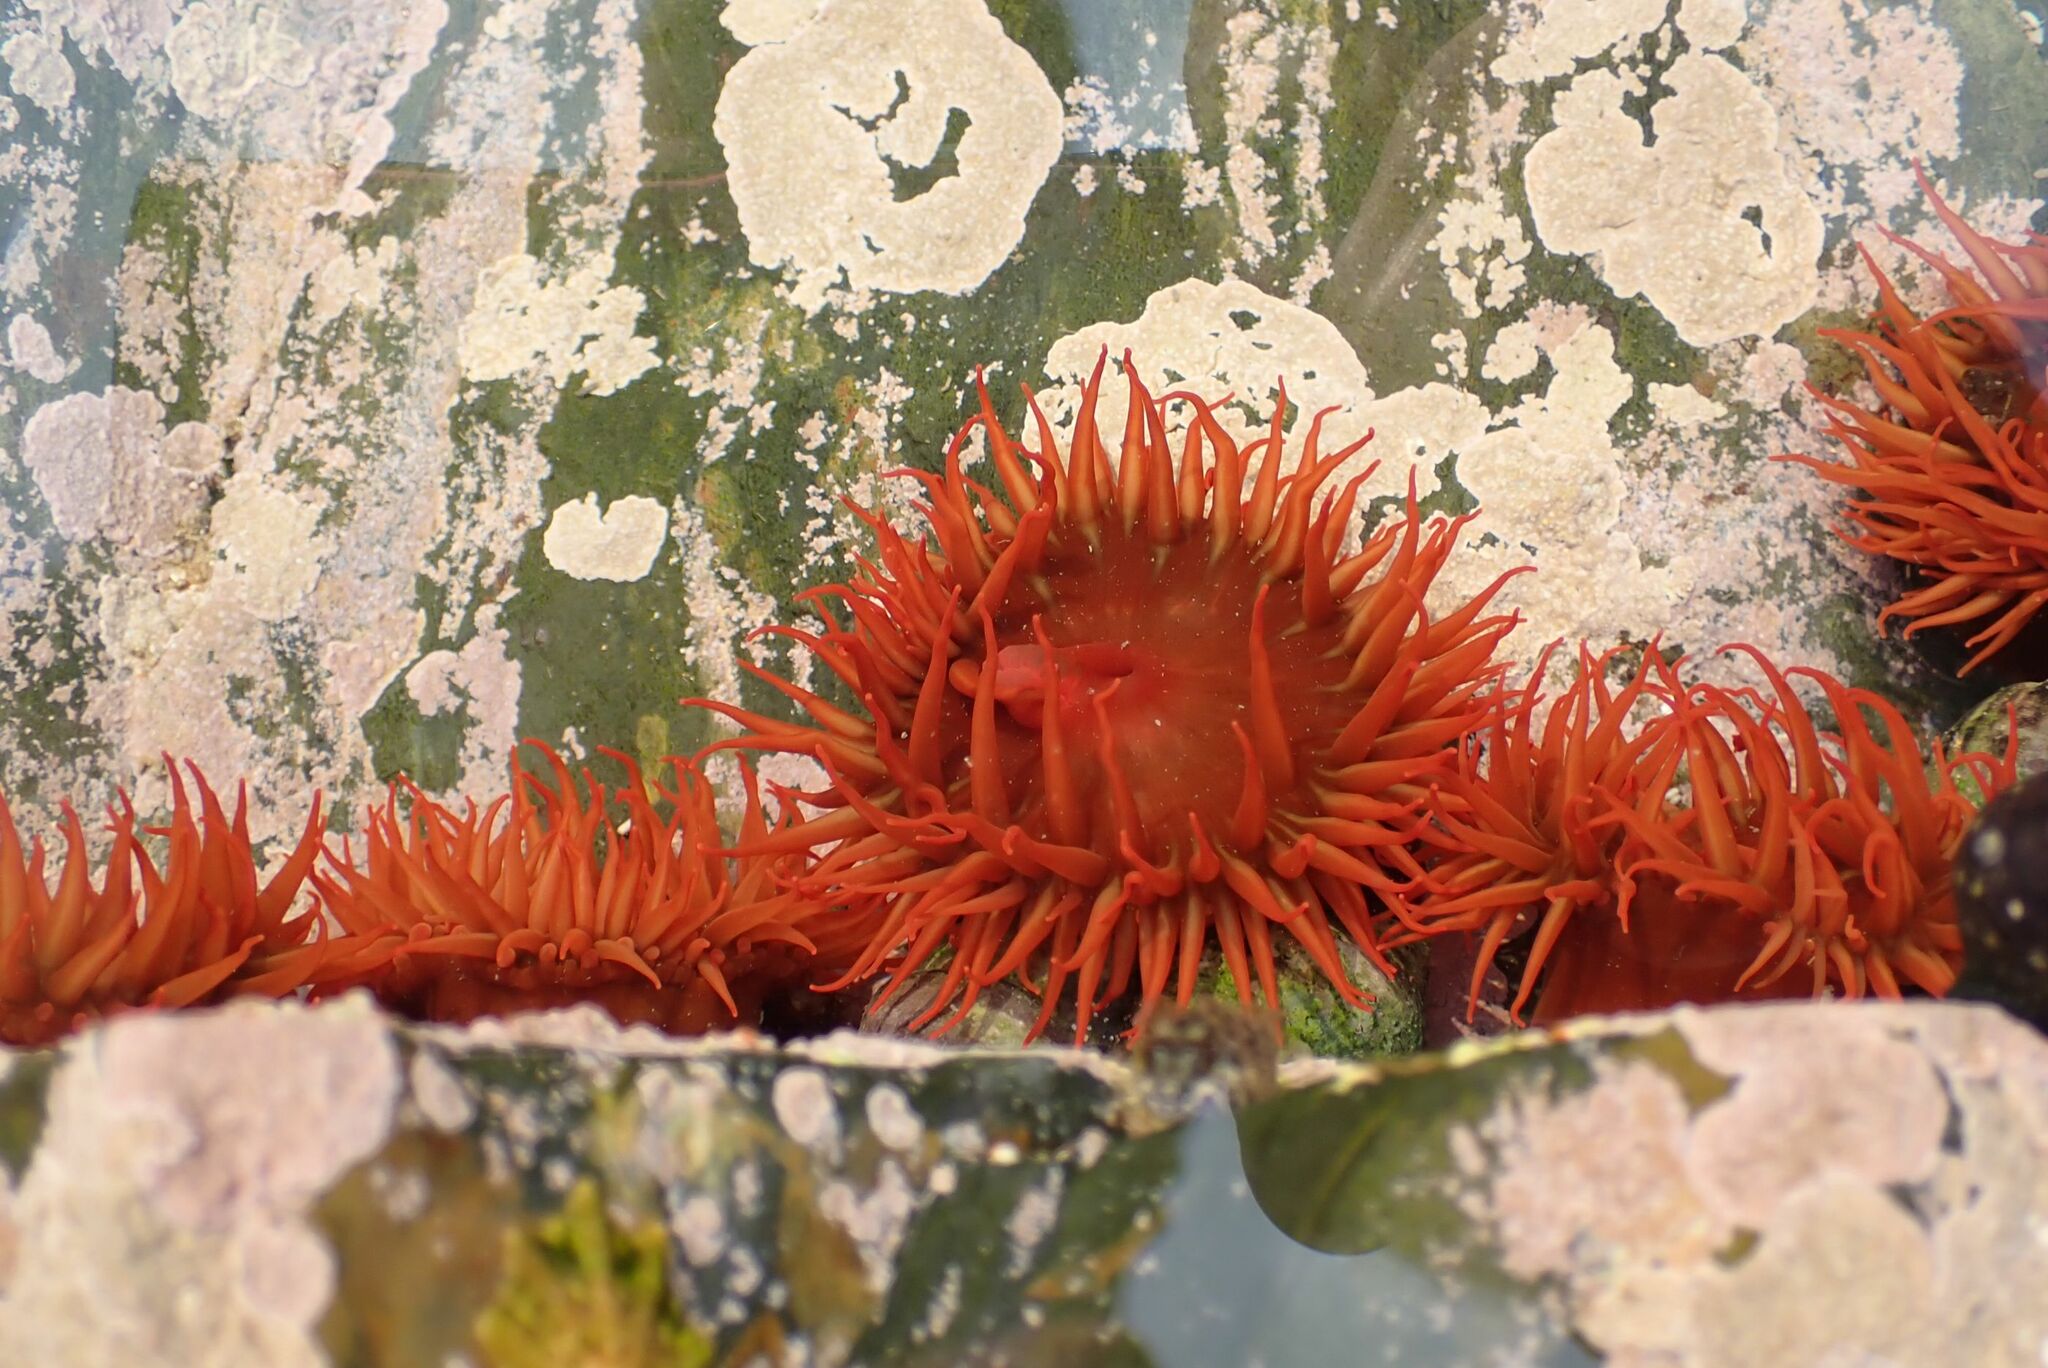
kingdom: Animalia
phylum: Cnidaria
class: Anthozoa
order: Actiniaria
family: Actiniidae
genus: Pseudactinia
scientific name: Pseudactinia flagellifera
